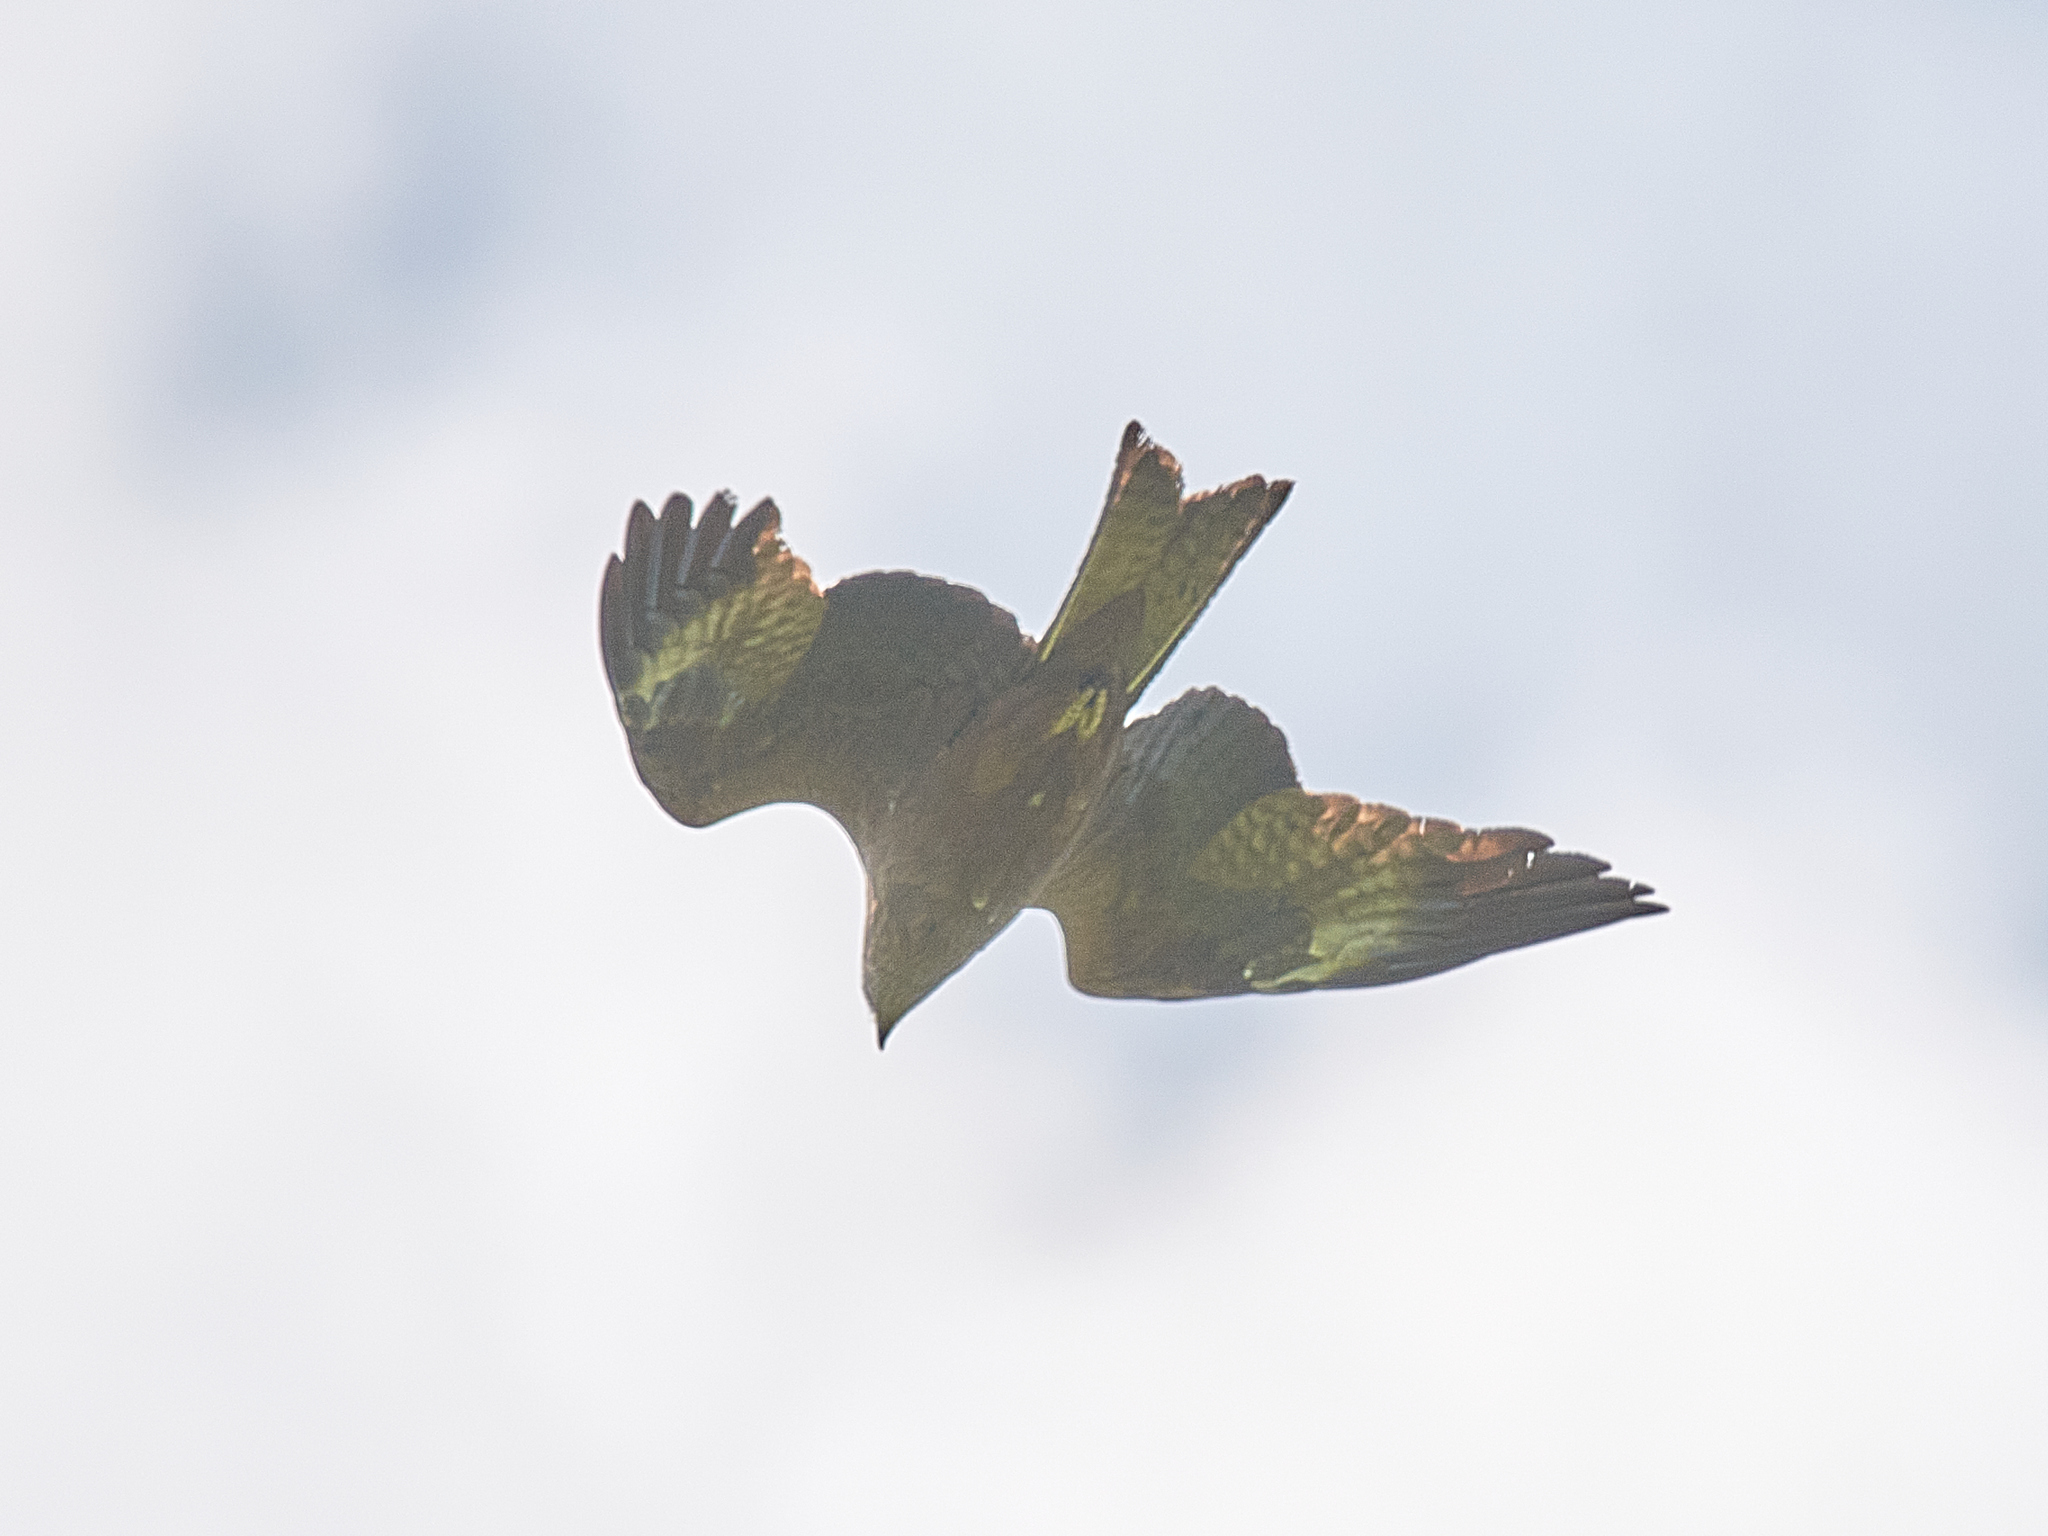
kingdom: Animalia
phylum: Chordata
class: Aves
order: Accipitriformes
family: Accipitridae
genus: Milvus
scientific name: Milvus migrans
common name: Black kite
